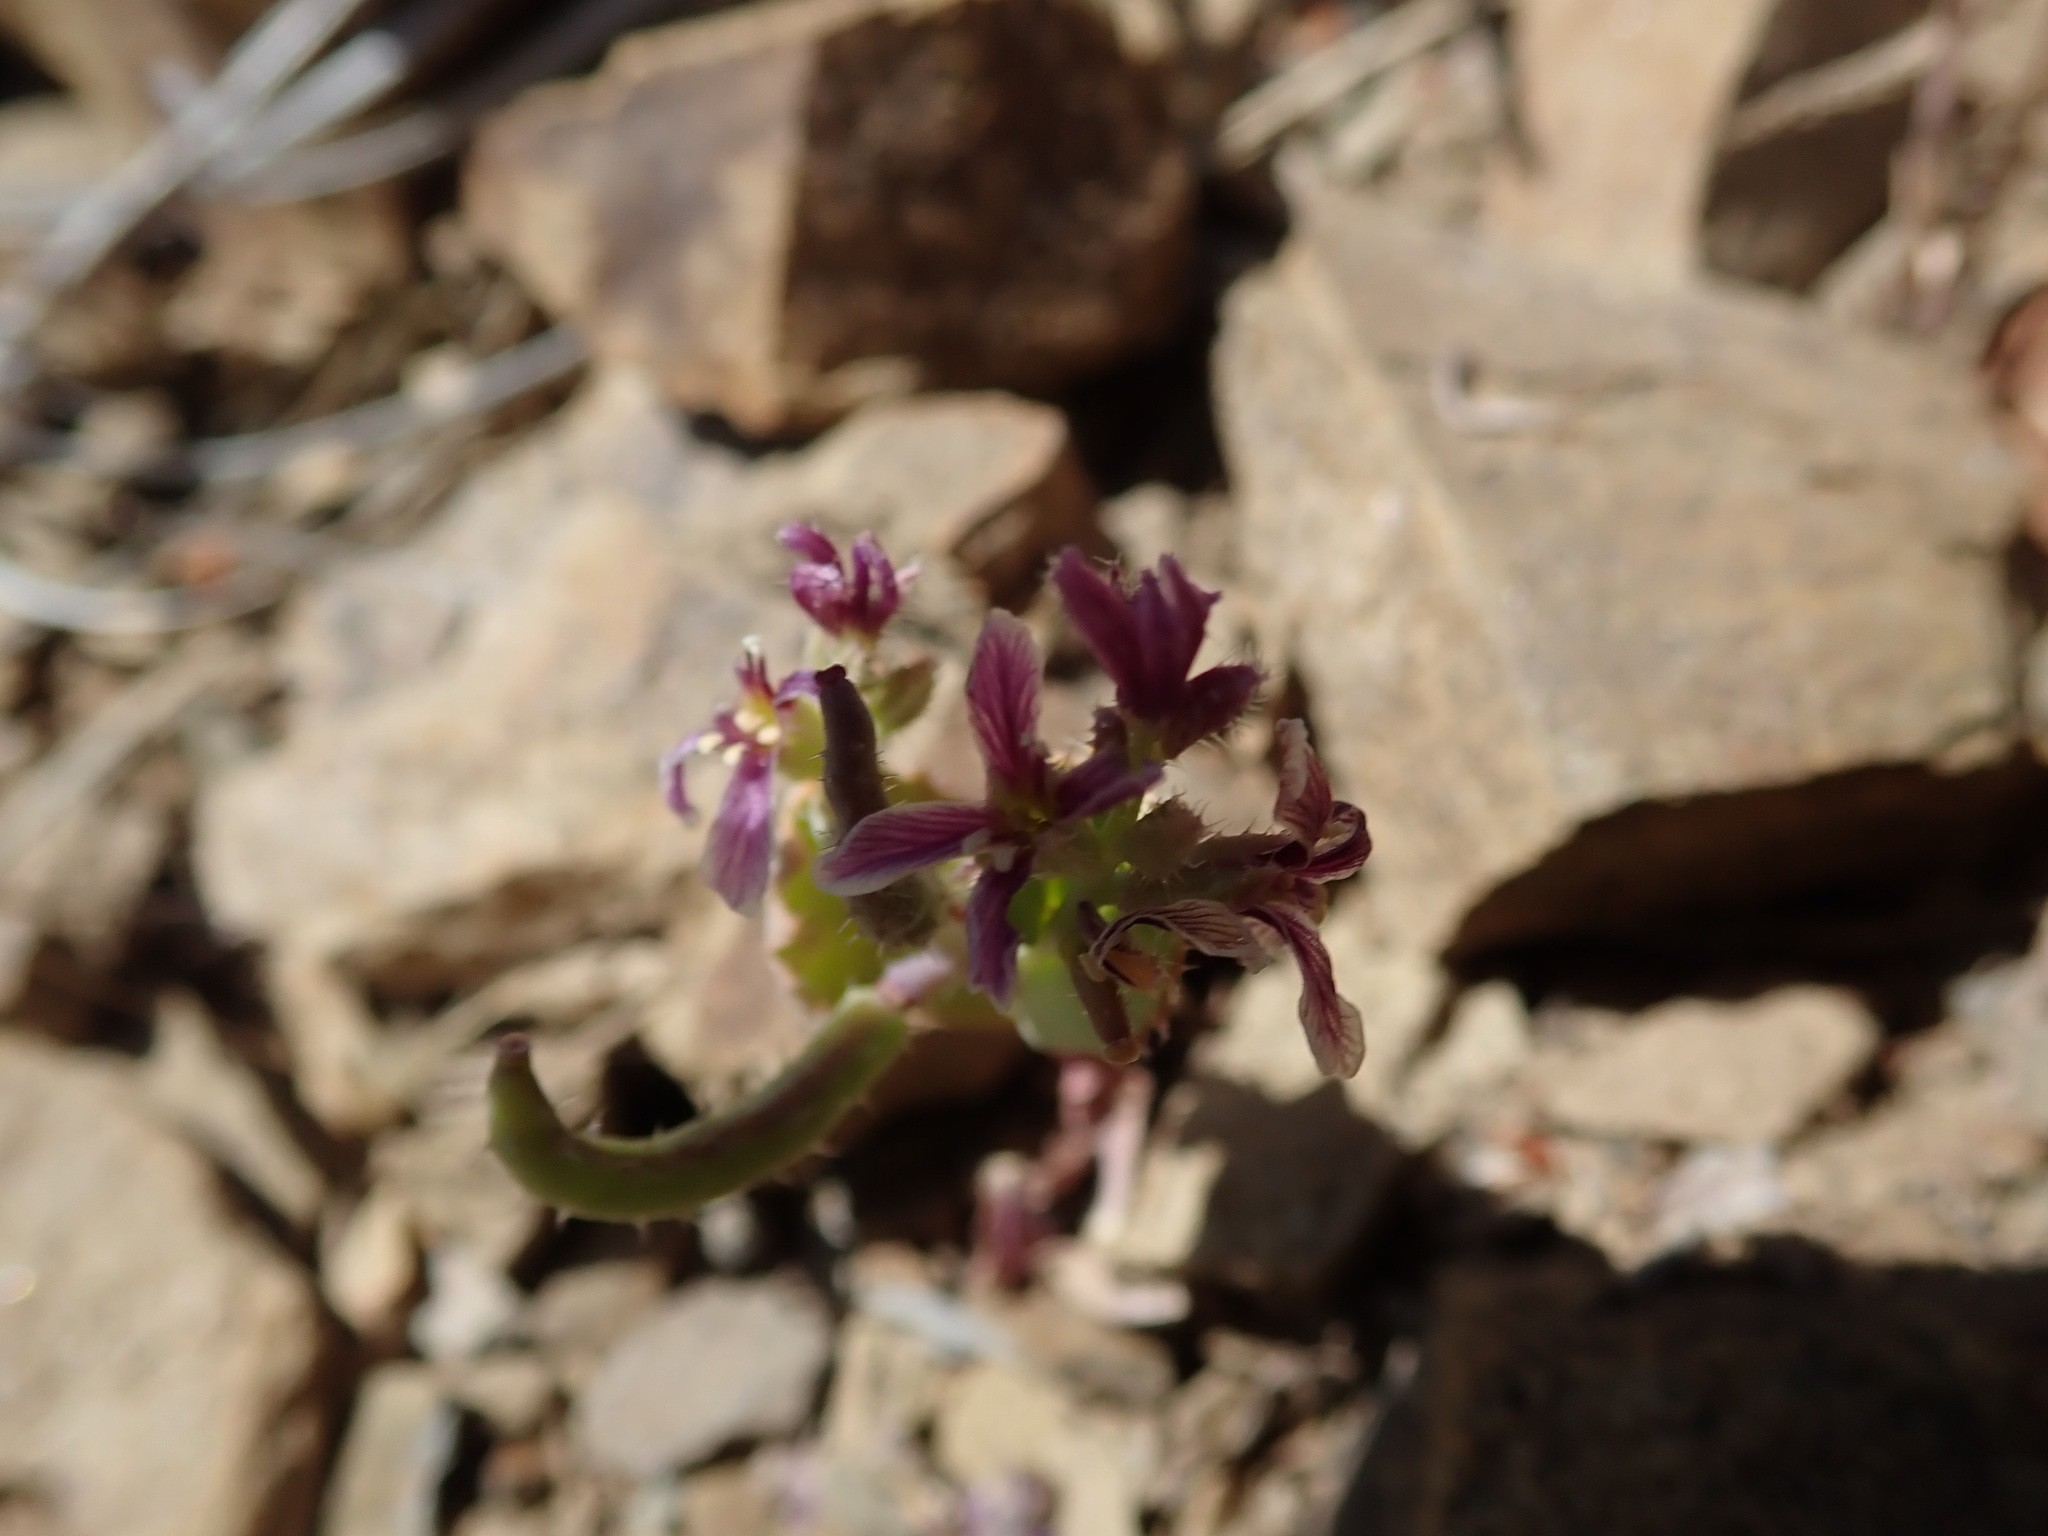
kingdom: Plantae
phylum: Tracheophyta
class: Magnoliopsida
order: Brassicales
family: Brassicaceae
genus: Streptanthus
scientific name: Streptanthus callistus
